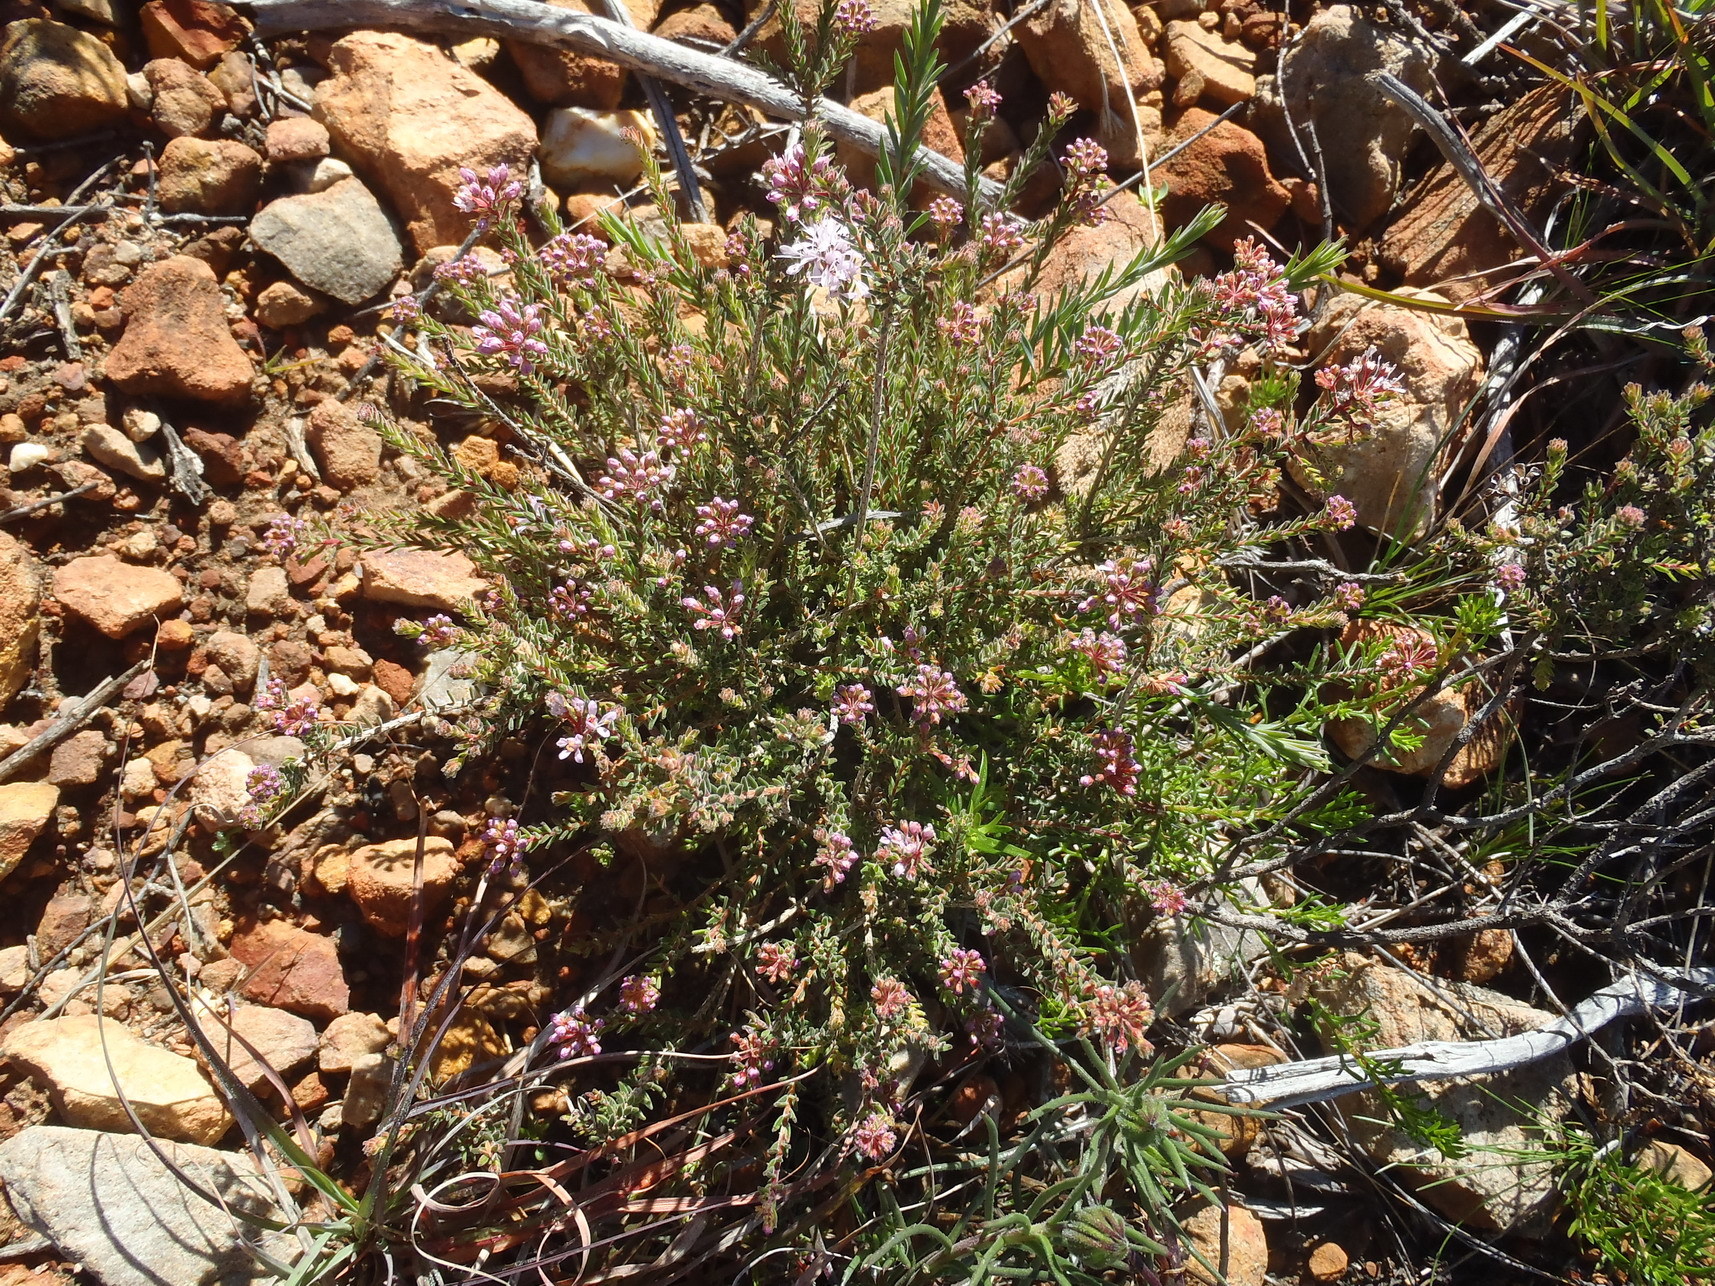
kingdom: Plantae
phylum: Tracheophyta
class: Magnoliopsida
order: Sapindales
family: Rutaceae
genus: Agathosma
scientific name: Agathosma capensis
